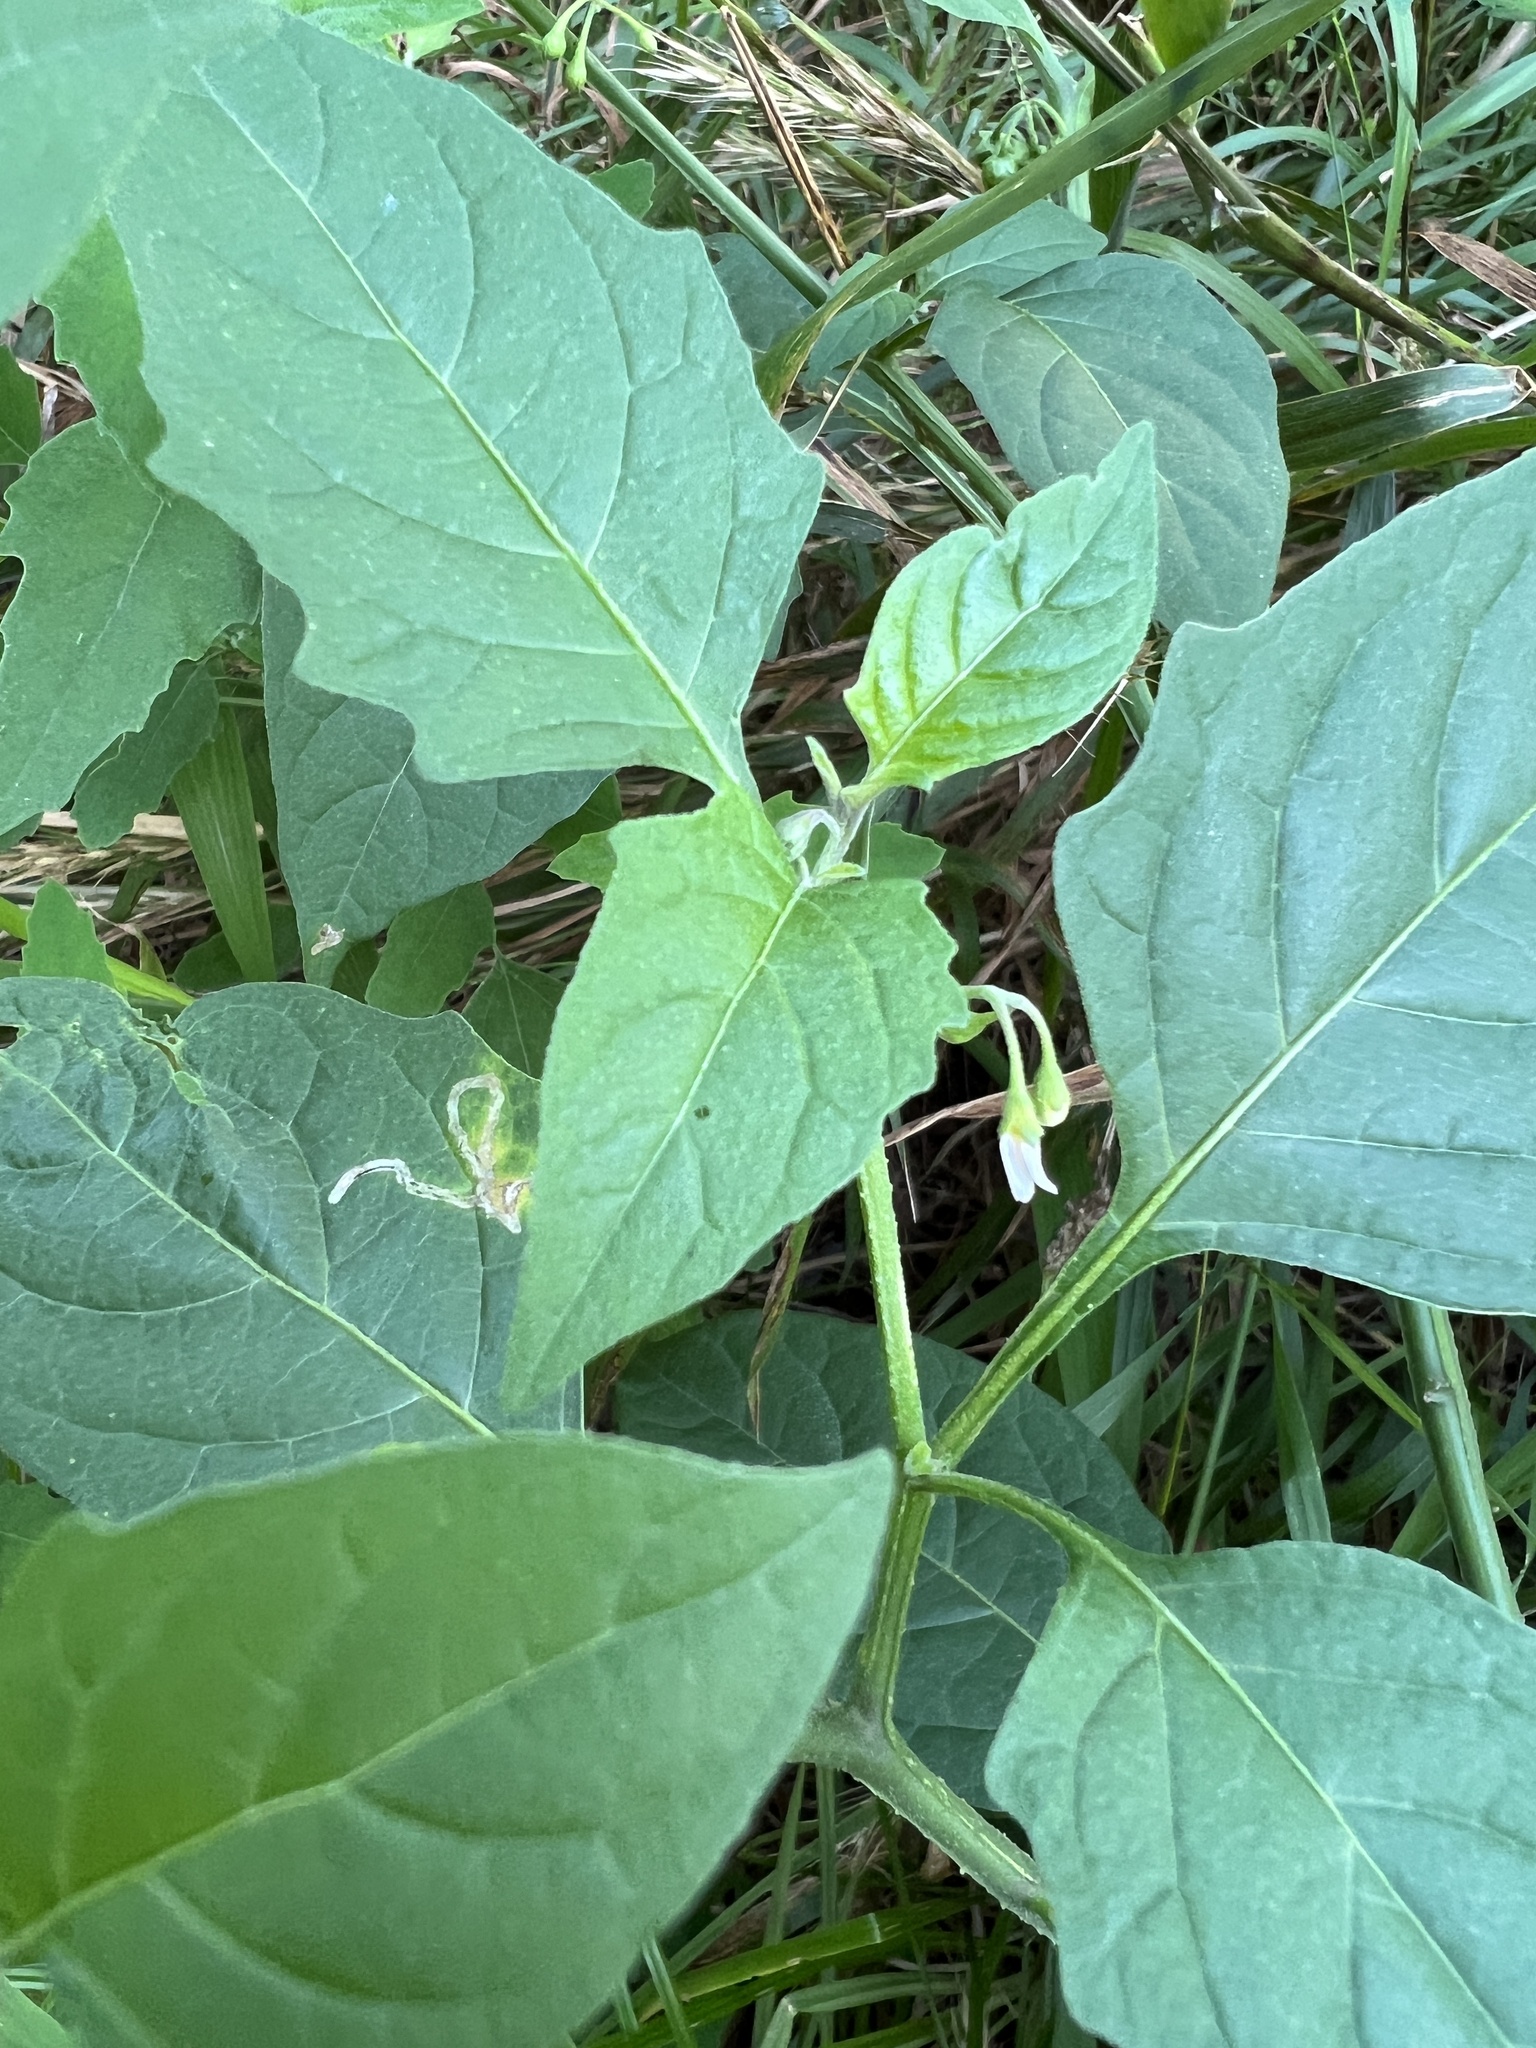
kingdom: Plantae
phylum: Tracheophyta
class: Magnoliopsida
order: Solanales
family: Solanaceae
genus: Solanum
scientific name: Solanum emulans
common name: Eastern black nightshade
